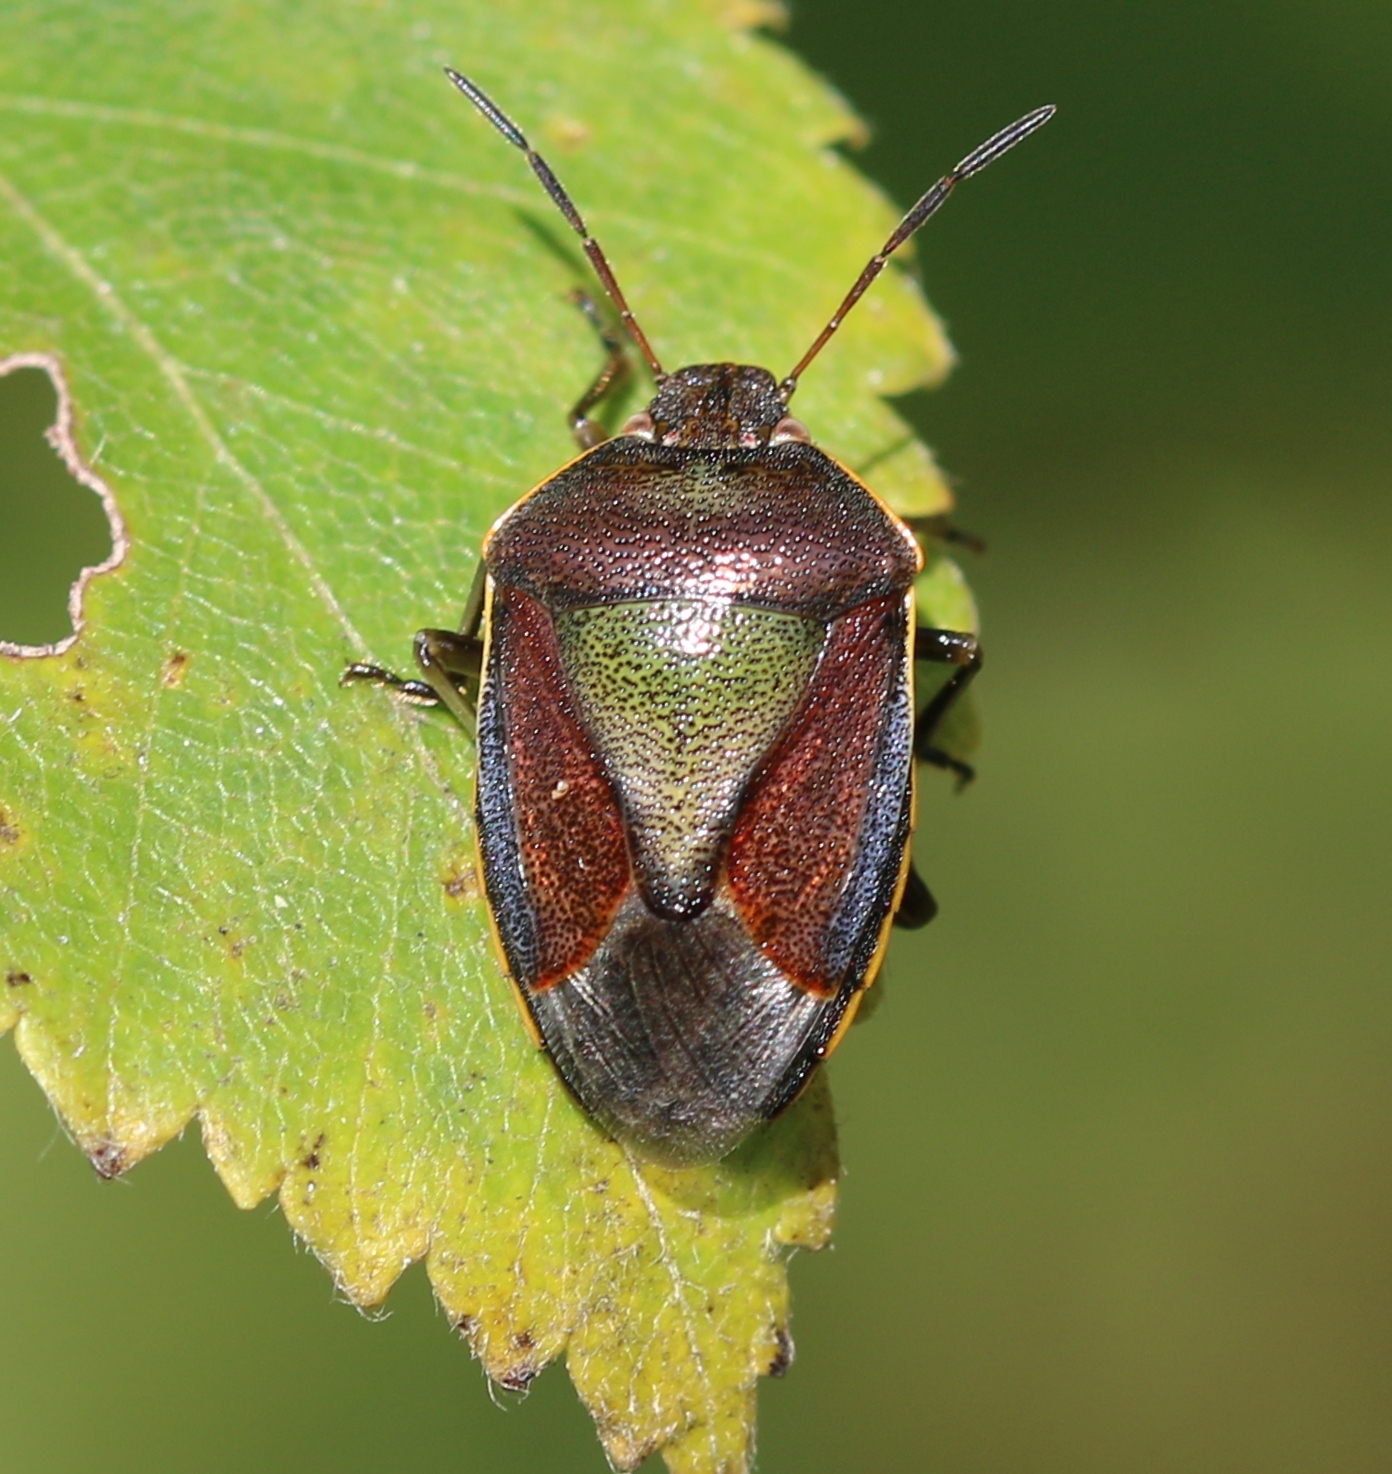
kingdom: Animalia
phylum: Arthropoda
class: Insecta
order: Hemiptera
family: Pentatomidae
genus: Piezodorus
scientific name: Piezodorus lituratus
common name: Stink bug
